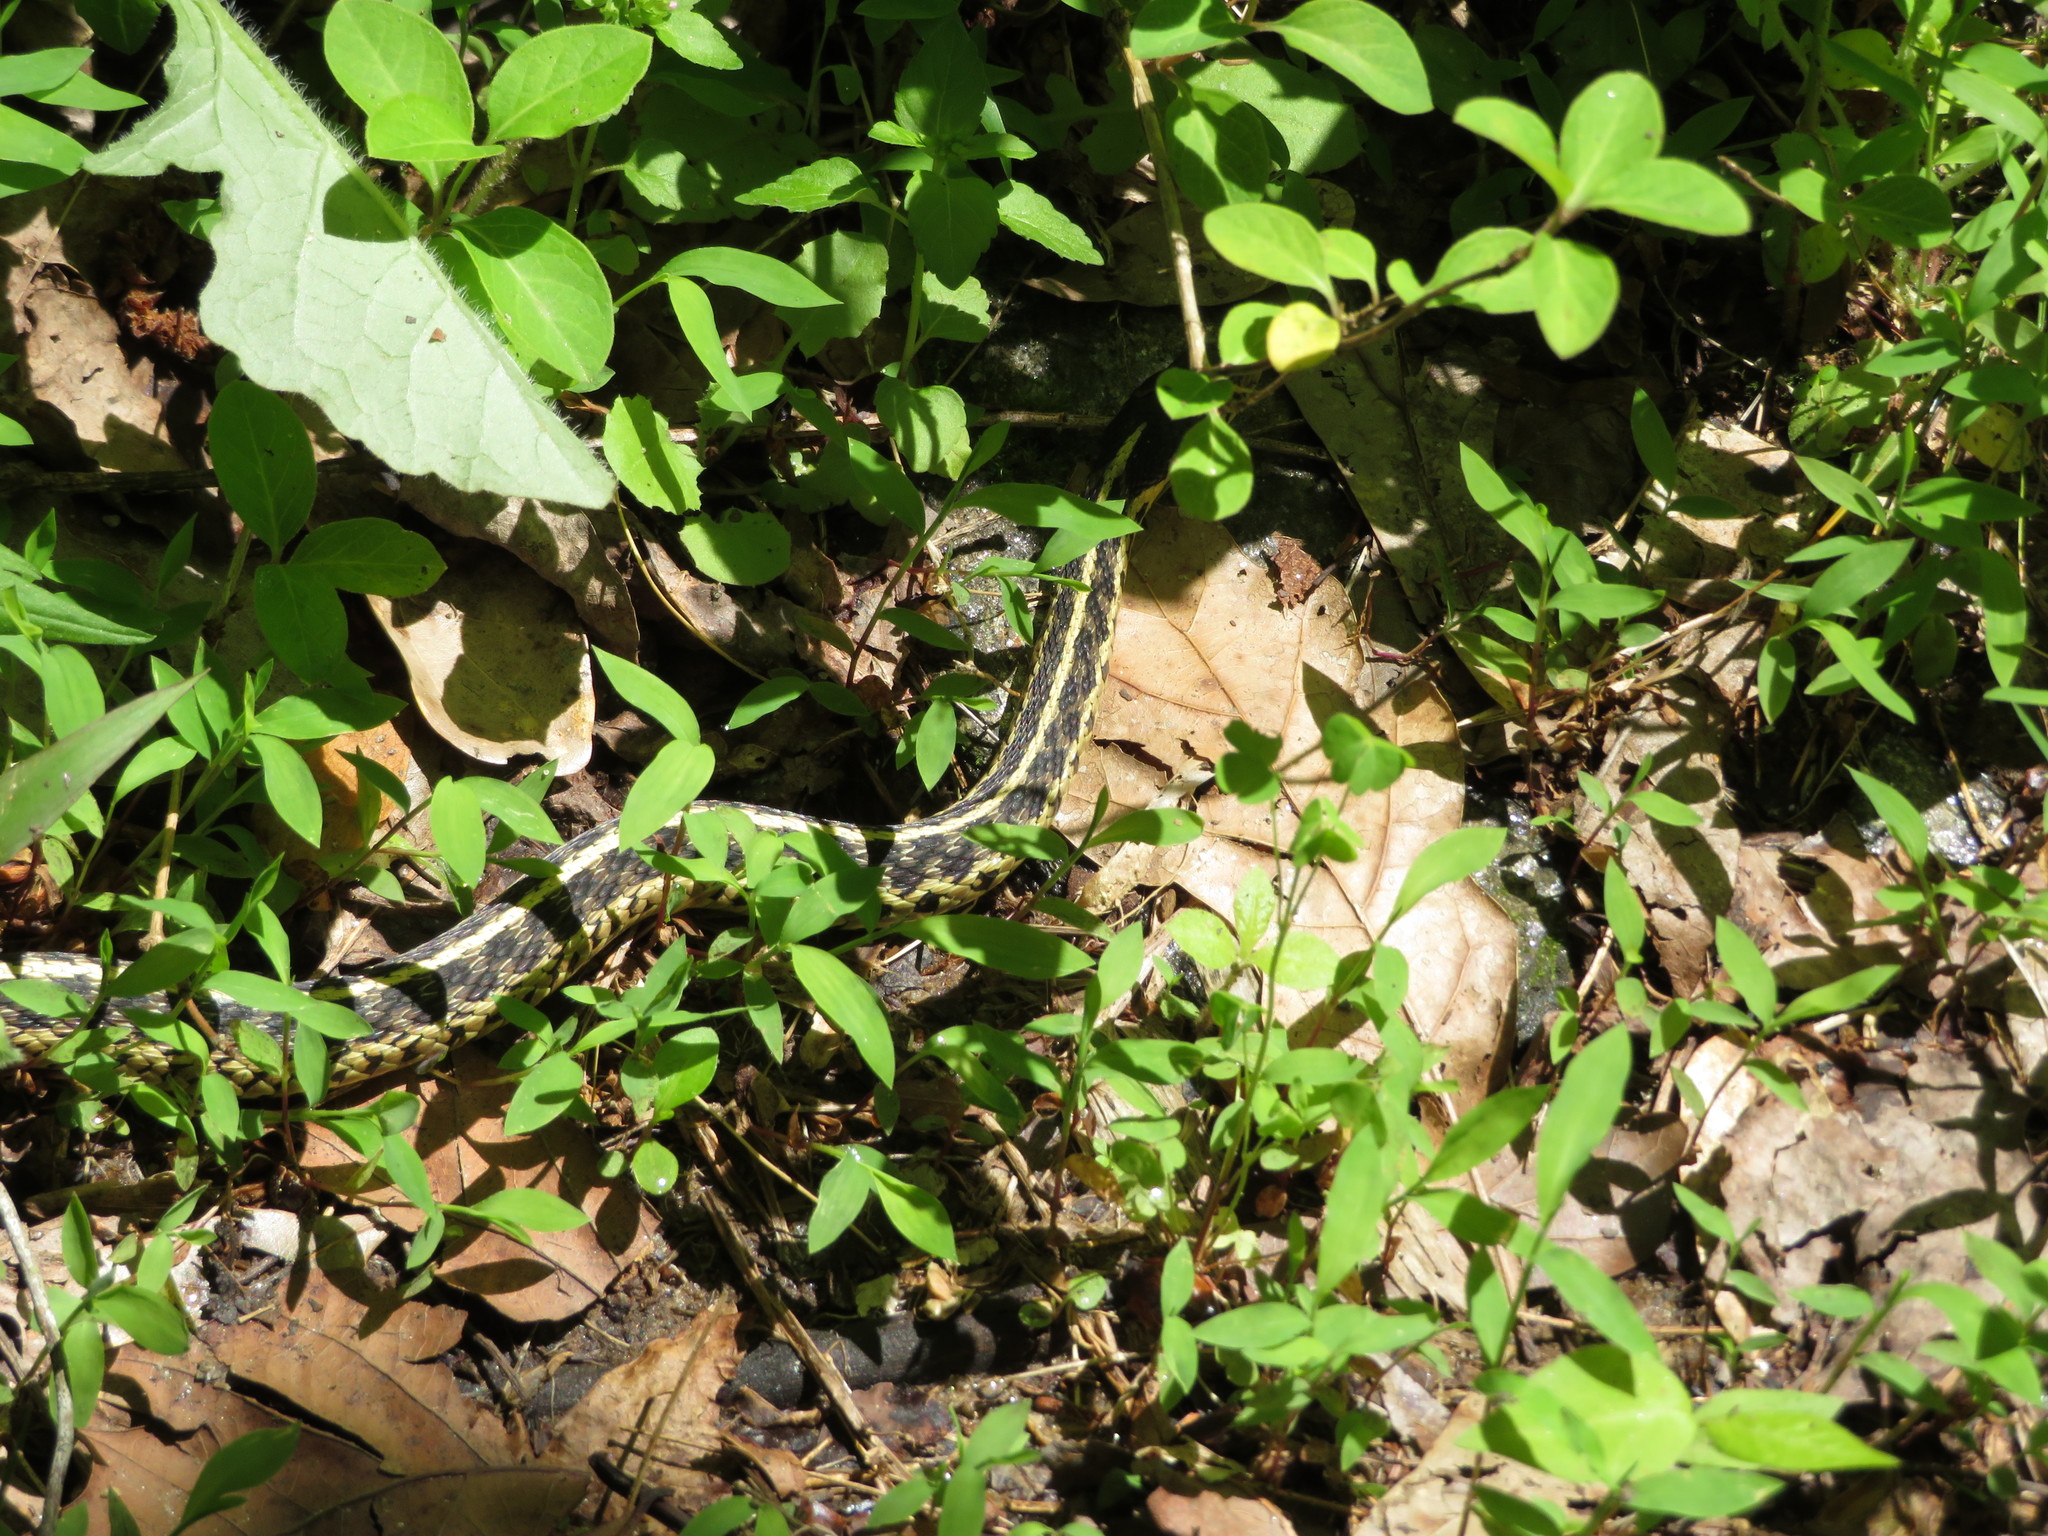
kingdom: Animalia
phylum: Chordata
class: Squamata
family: Colubridae
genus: Thamnophis
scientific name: Thamnophis sirtalis
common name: Common garter snake
